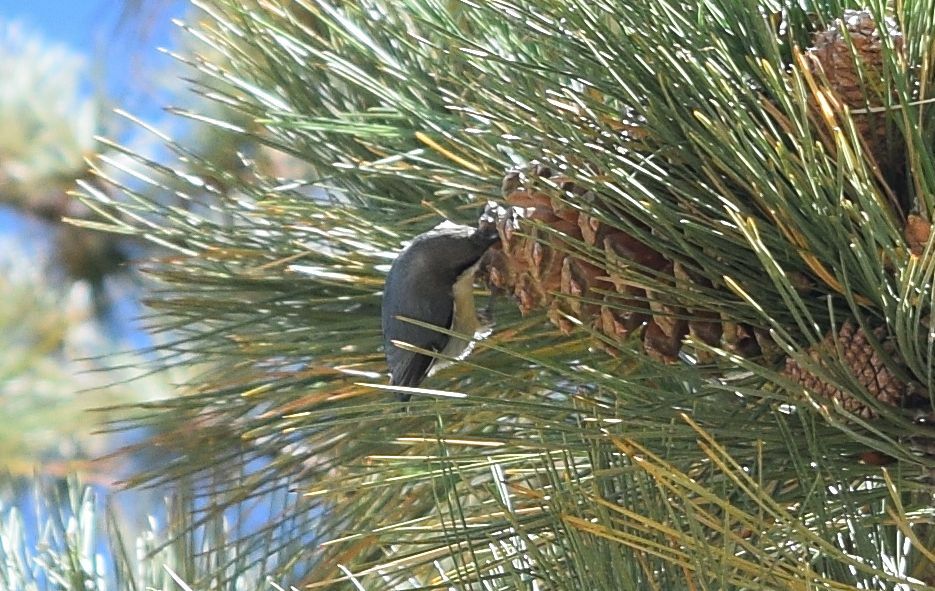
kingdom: Animalia
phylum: Chordata
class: Aves
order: Passeriformes
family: Sittidae
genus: Sitta
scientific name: Sitta pygmaea
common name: Pygmy nuthatch
